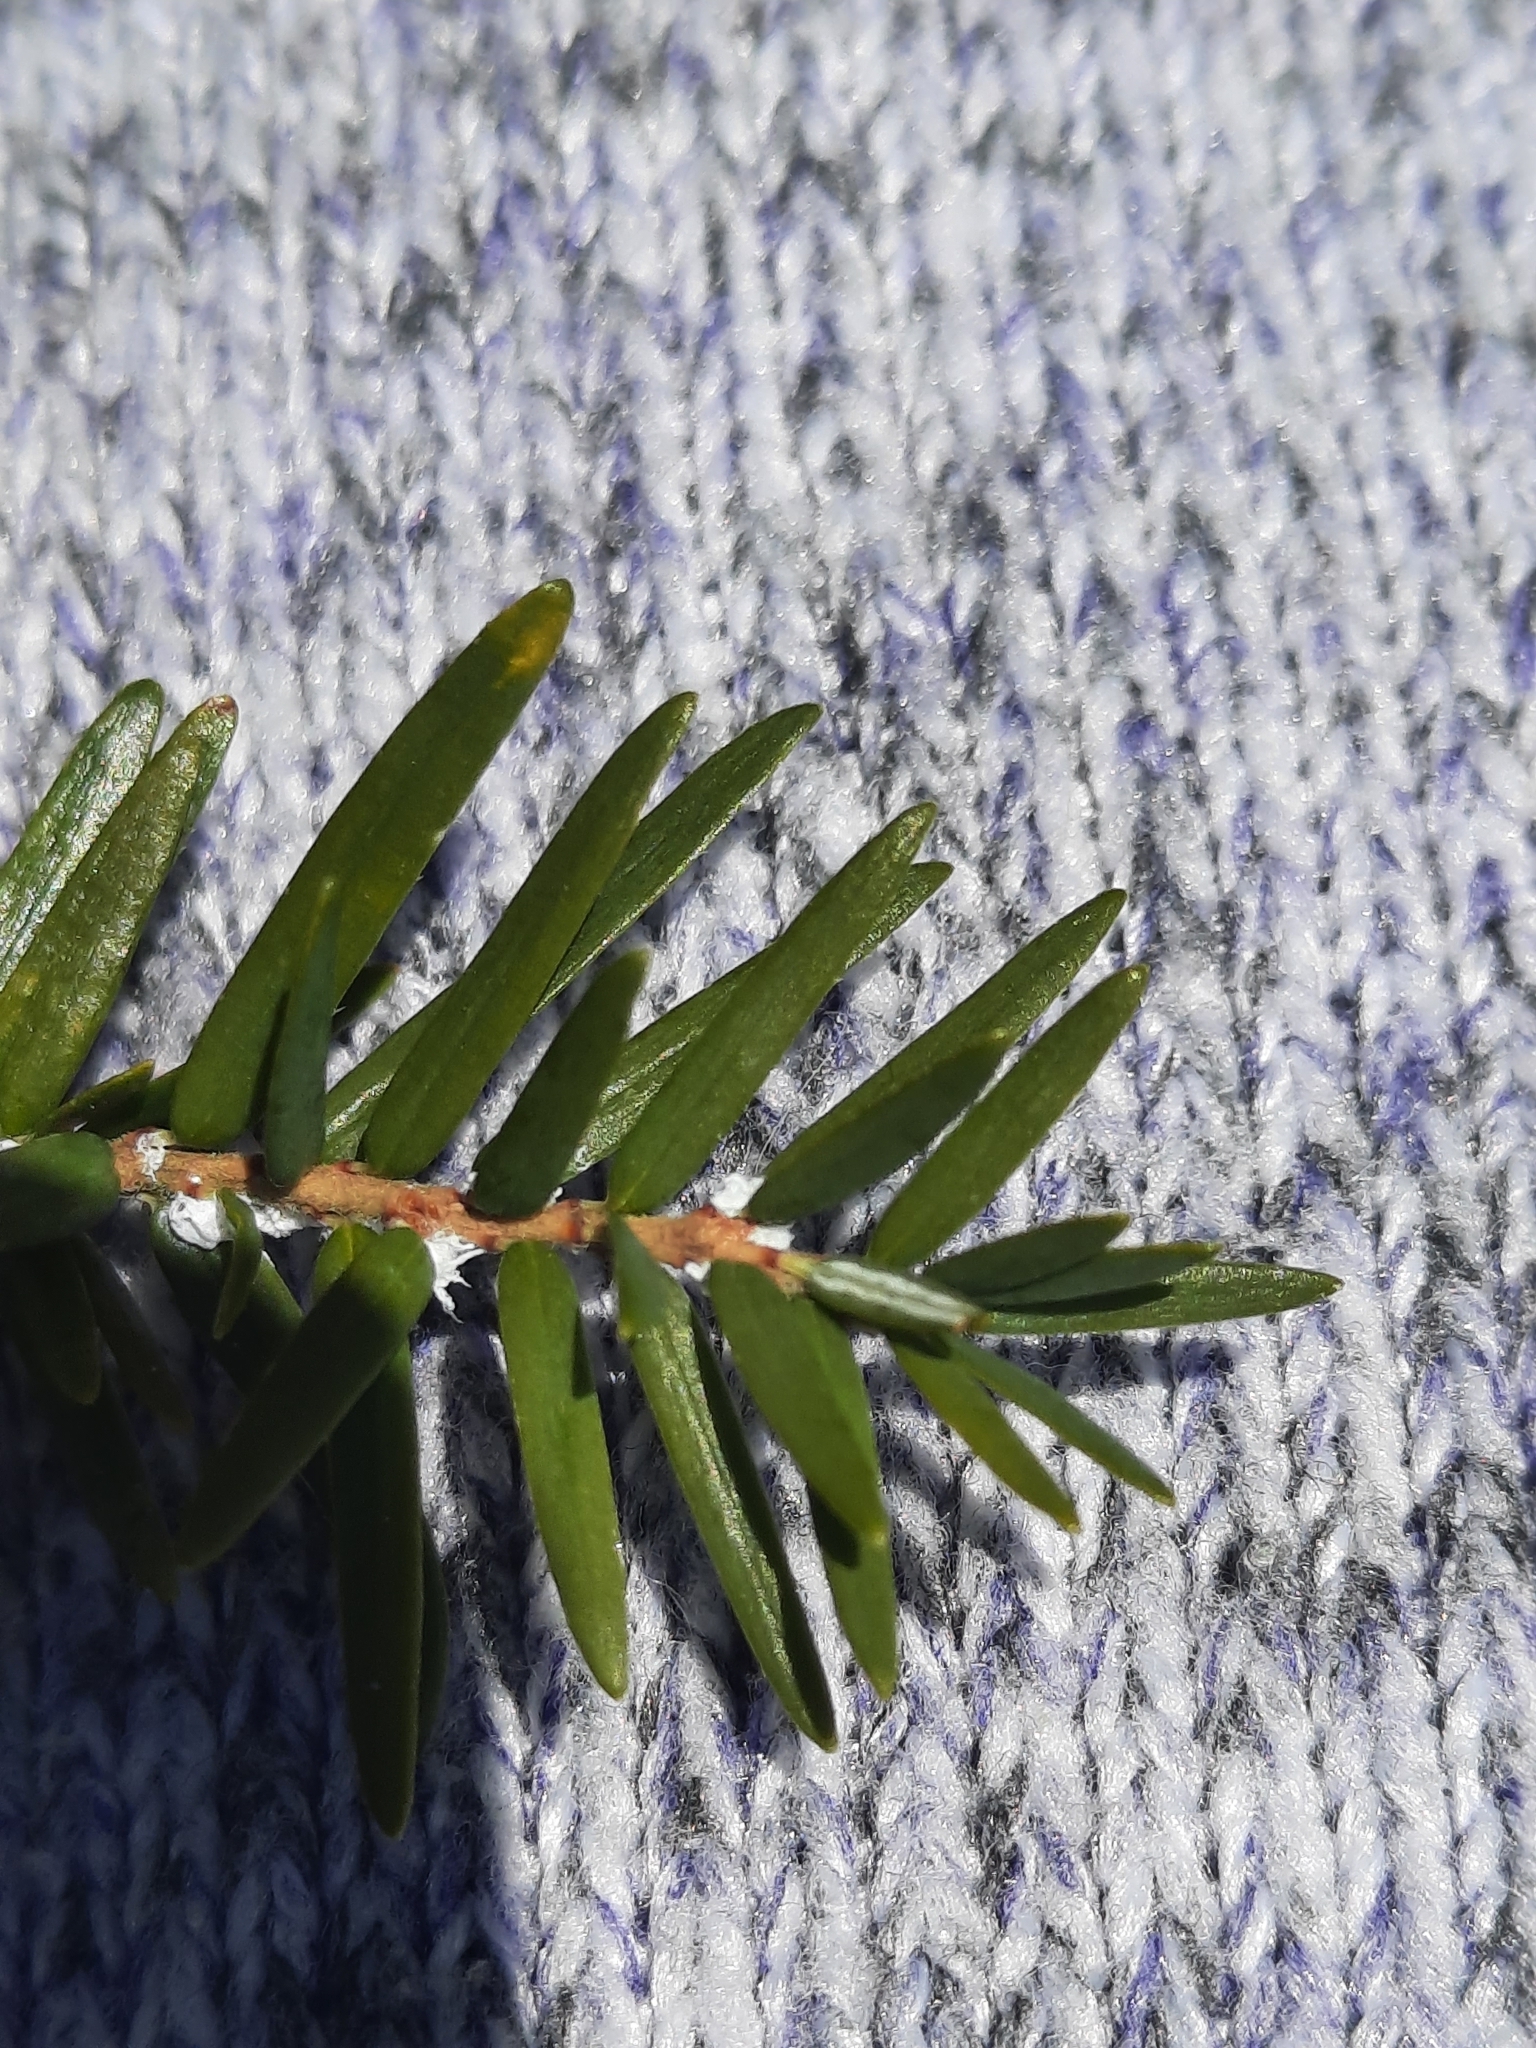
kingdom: Animalia
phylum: Arthropoda
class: Insecta
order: Hemiptera
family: Adelgidae
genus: Adelges
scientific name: Adelges tsugae
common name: Hemlock woolly adelgid
